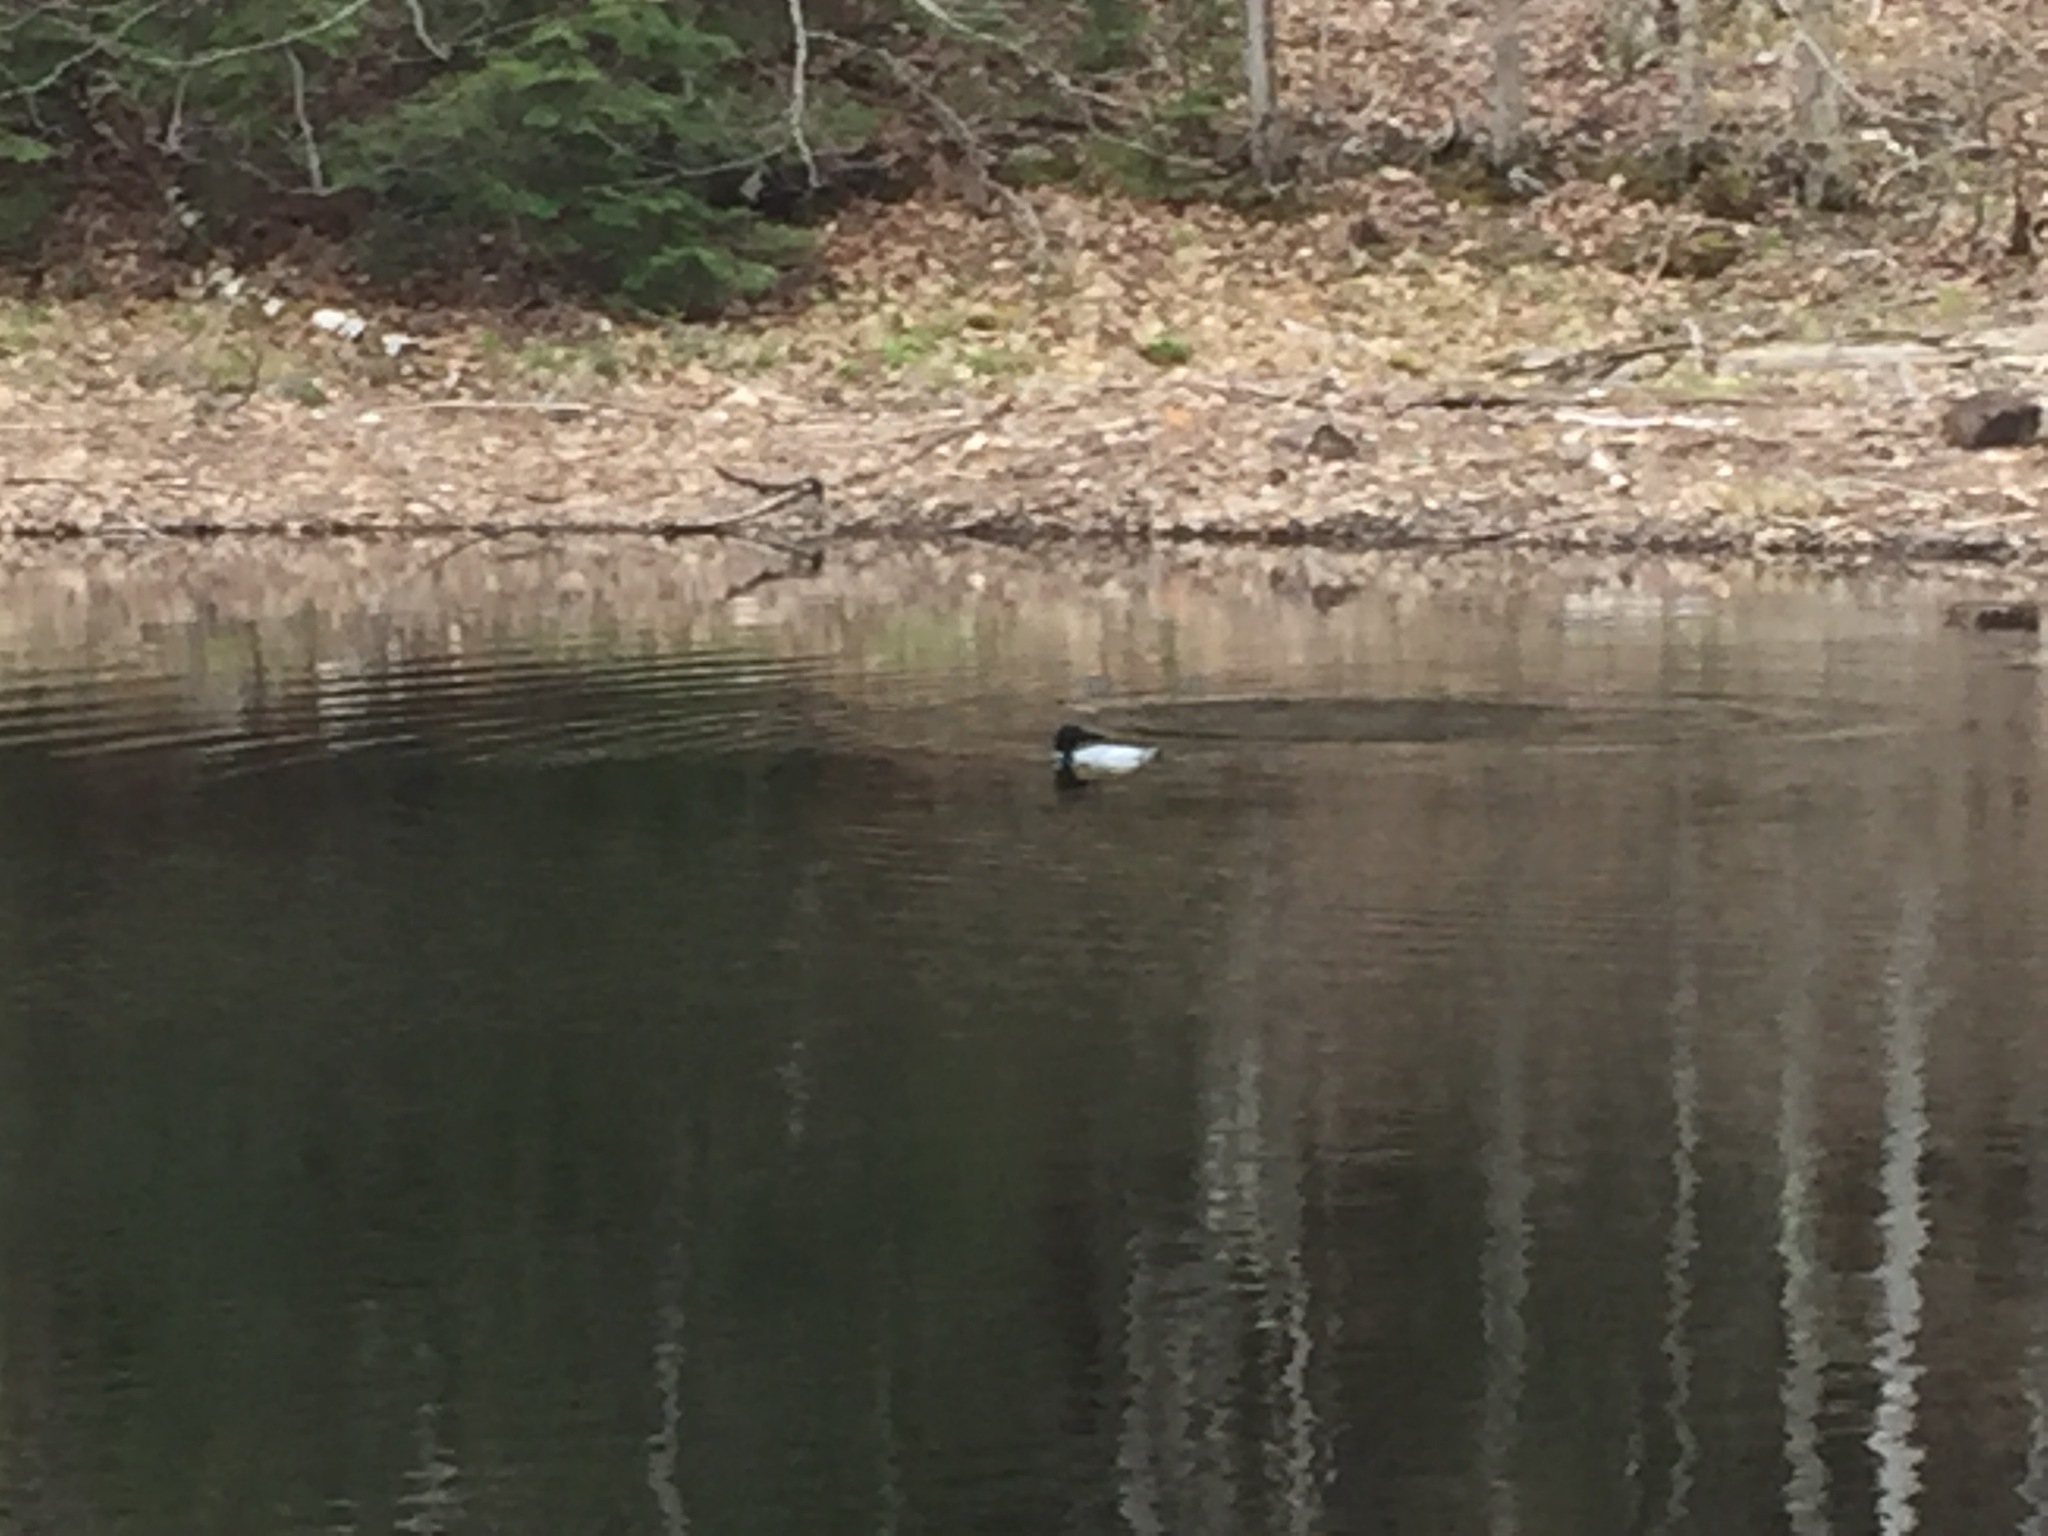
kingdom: Animalia
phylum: Chordata
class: Aves
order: Gaviiformes
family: Gaviidae
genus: Gavia
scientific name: Gavia immer
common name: Common loon
